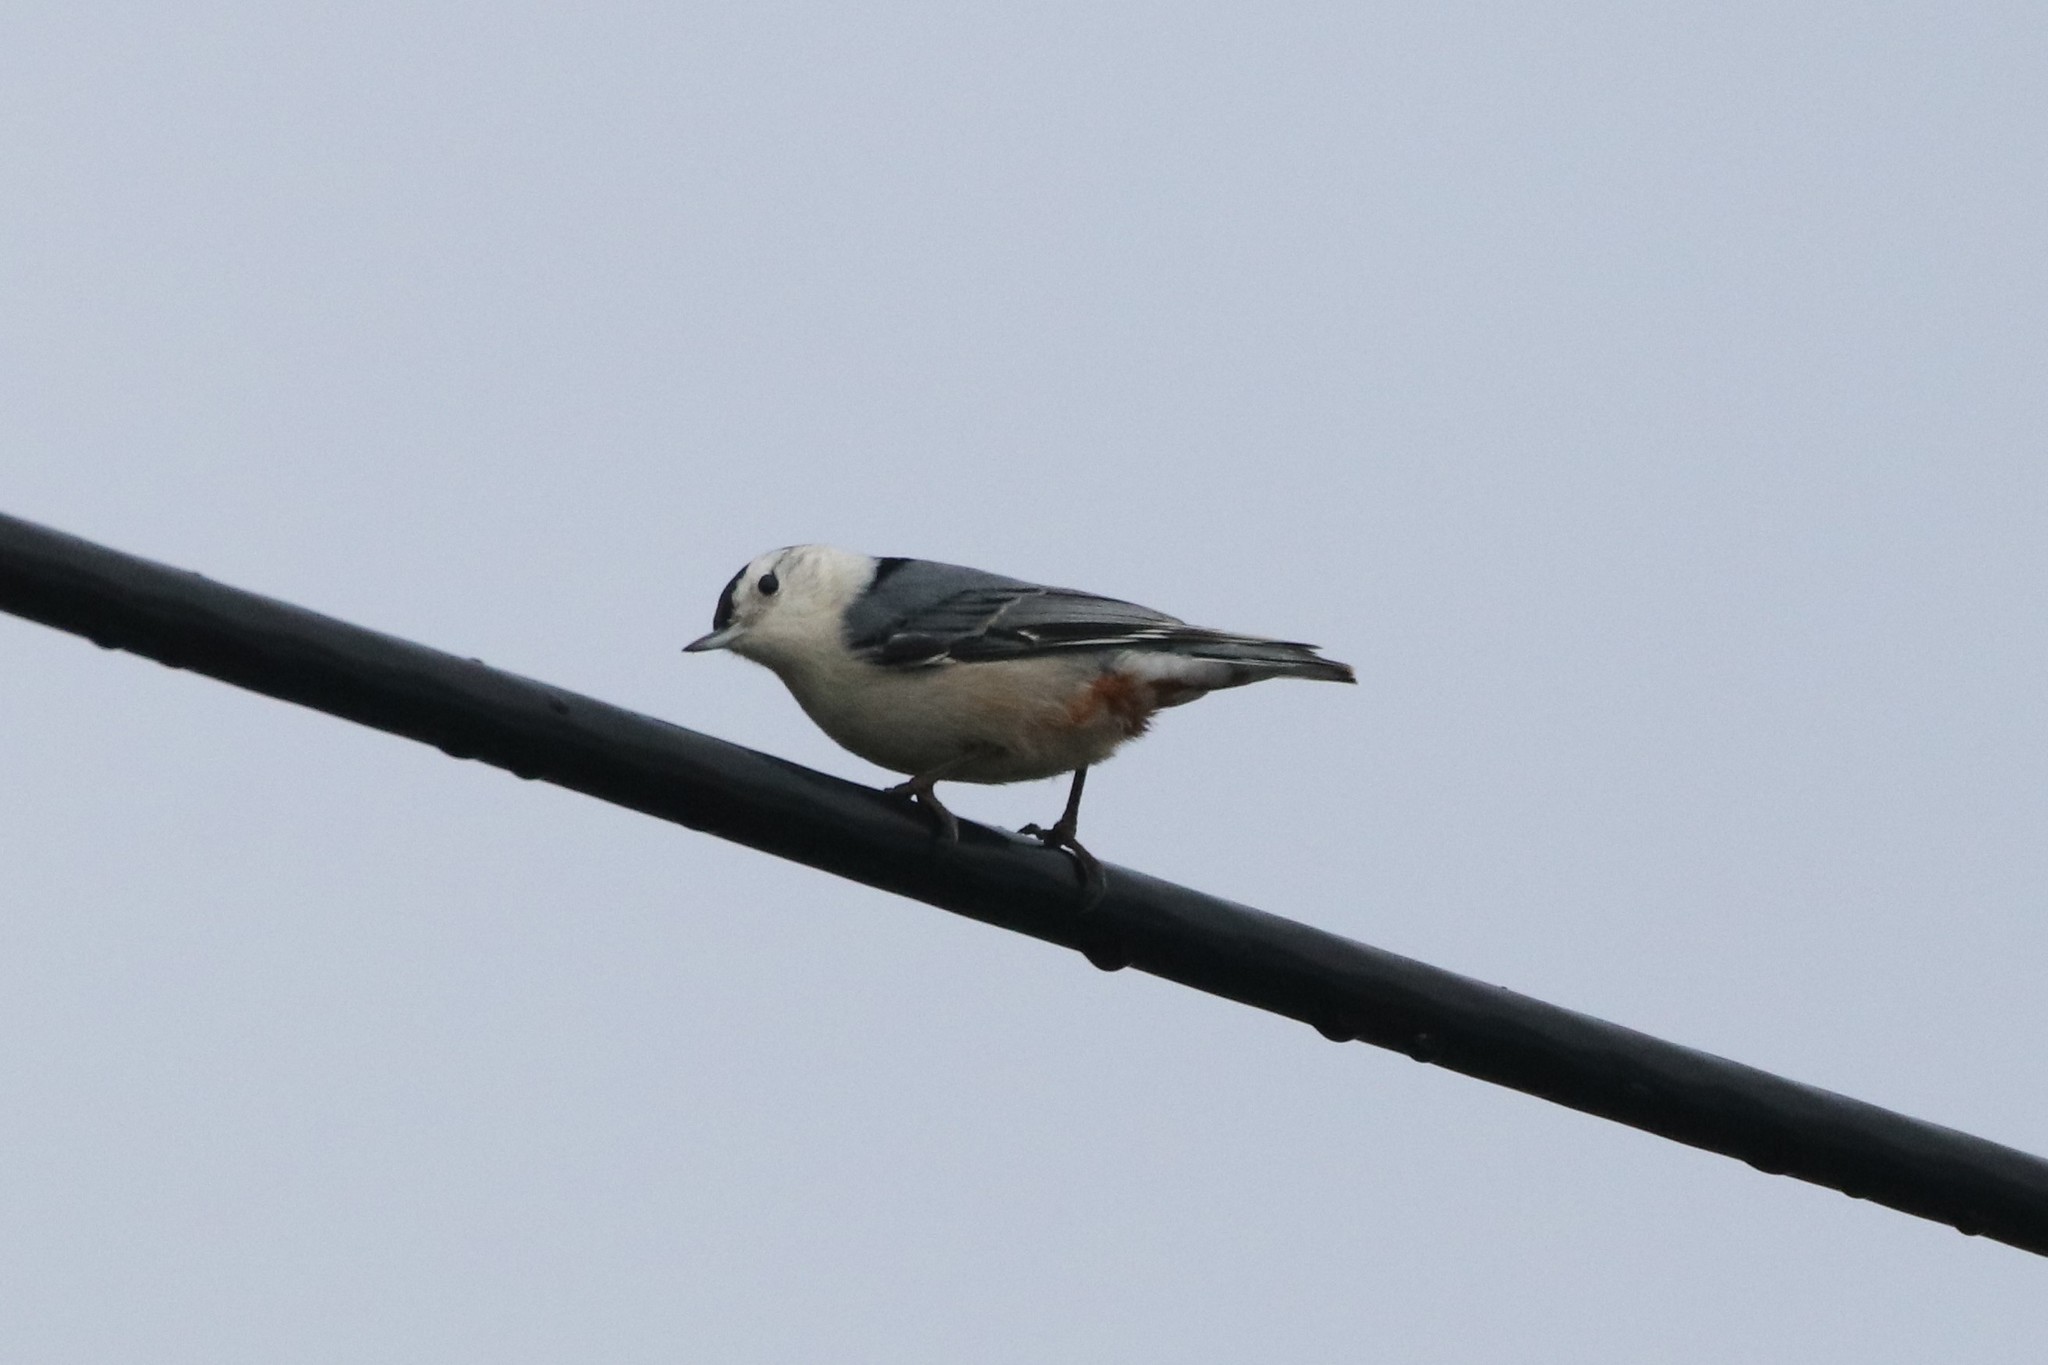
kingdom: Animalia
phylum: Chordata
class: Aves
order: Passeriformes
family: Sittidae
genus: Sitta
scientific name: Sitta carolinensis
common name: White-breasted nuthatch
